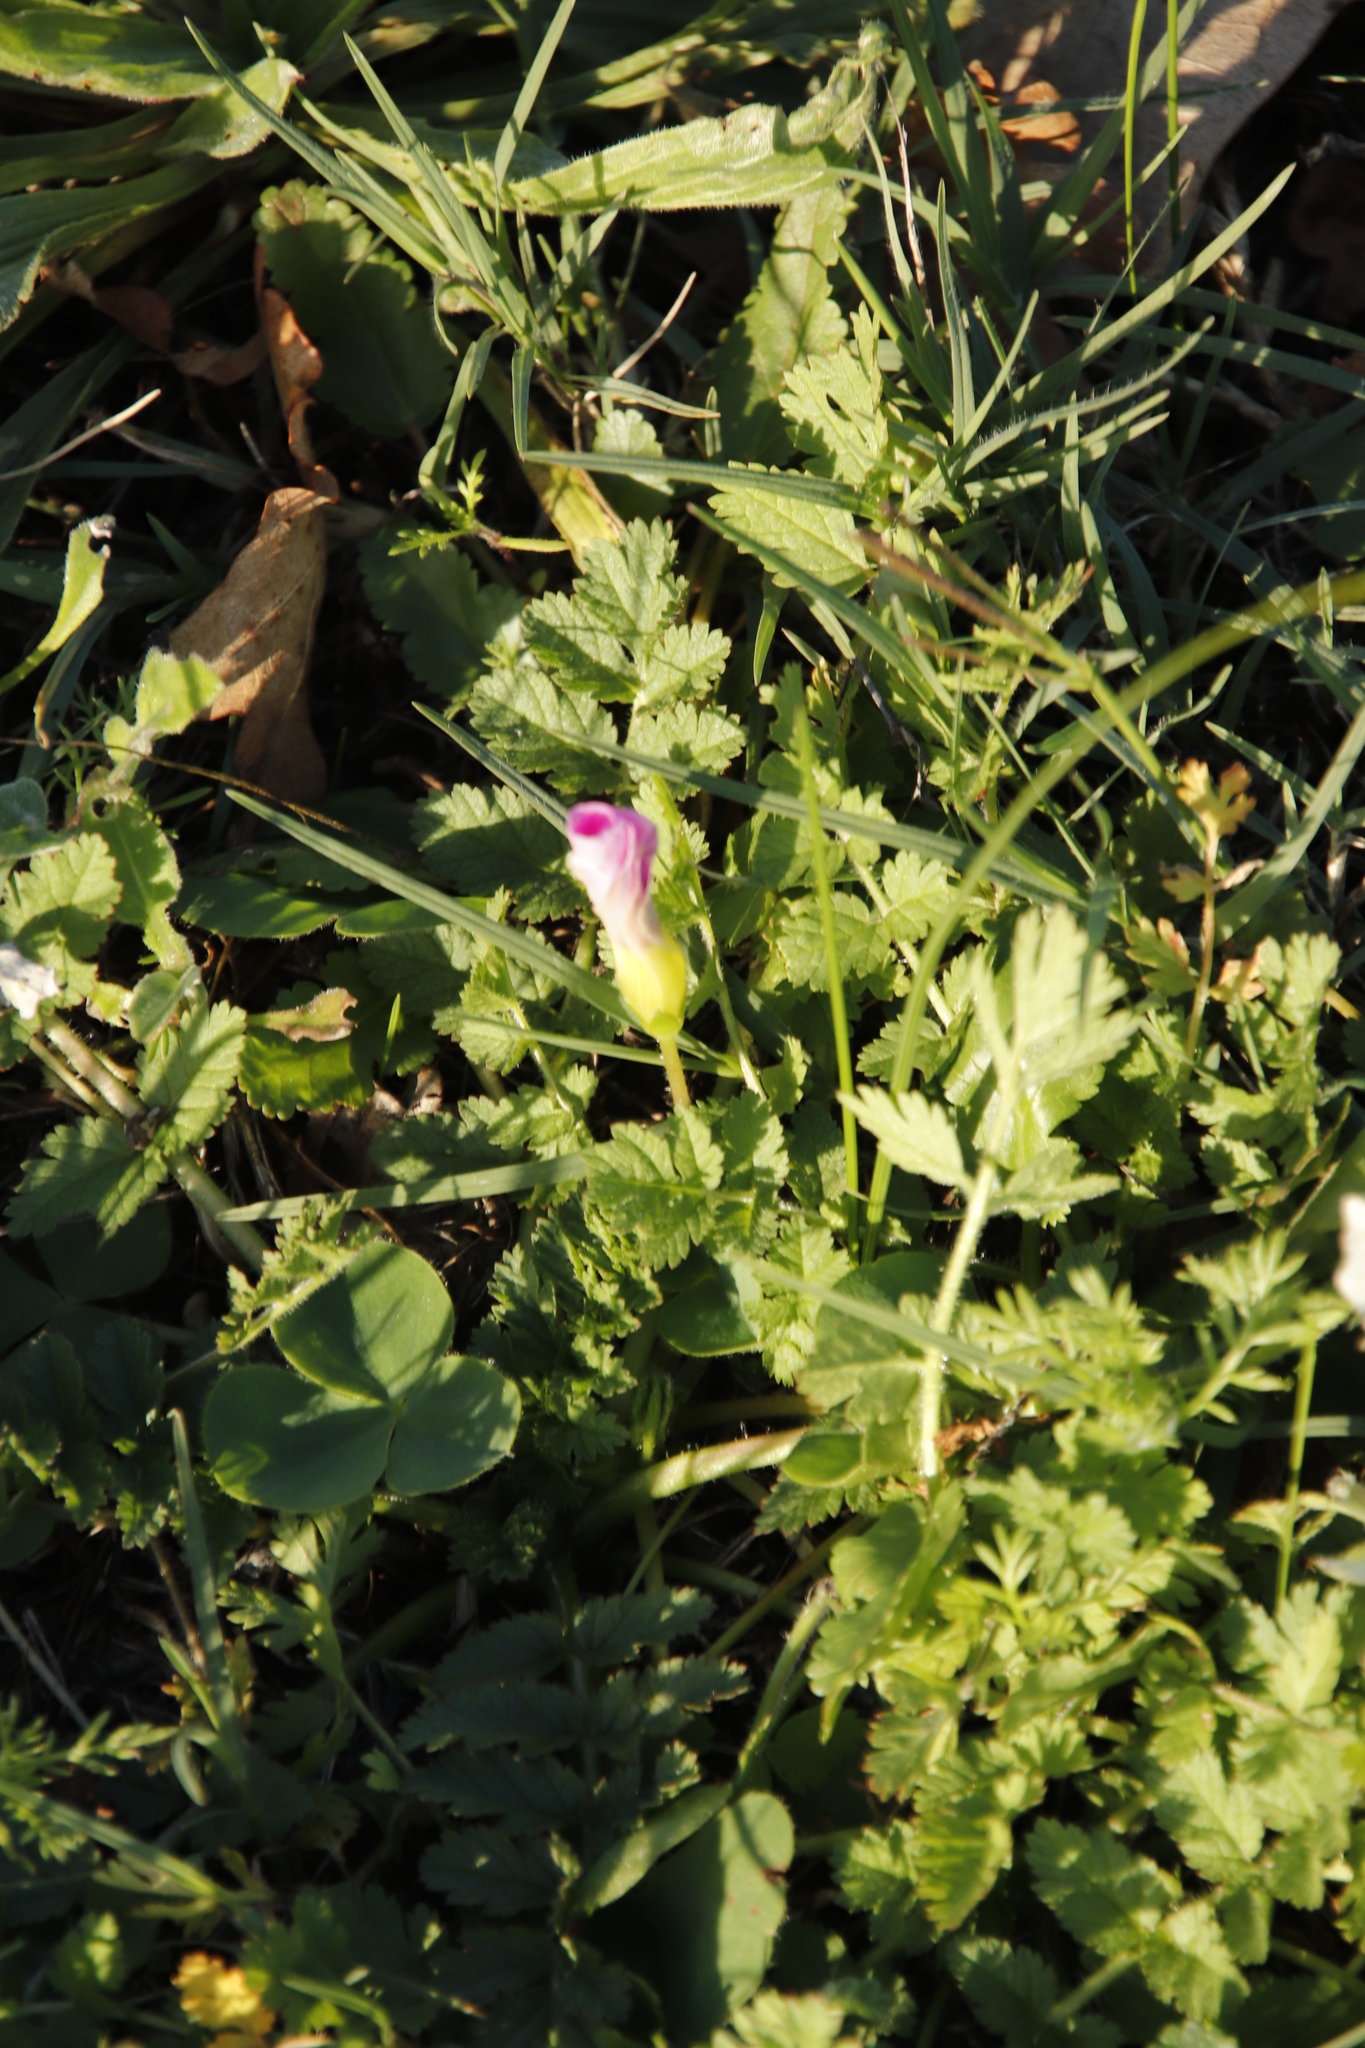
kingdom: Plantae
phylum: Tracheophyta
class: Magnoliopsida
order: Oxalidales
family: Oxalidaceae
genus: Oxalis
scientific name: Oxalis purpurea
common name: Purple woodsorrel
